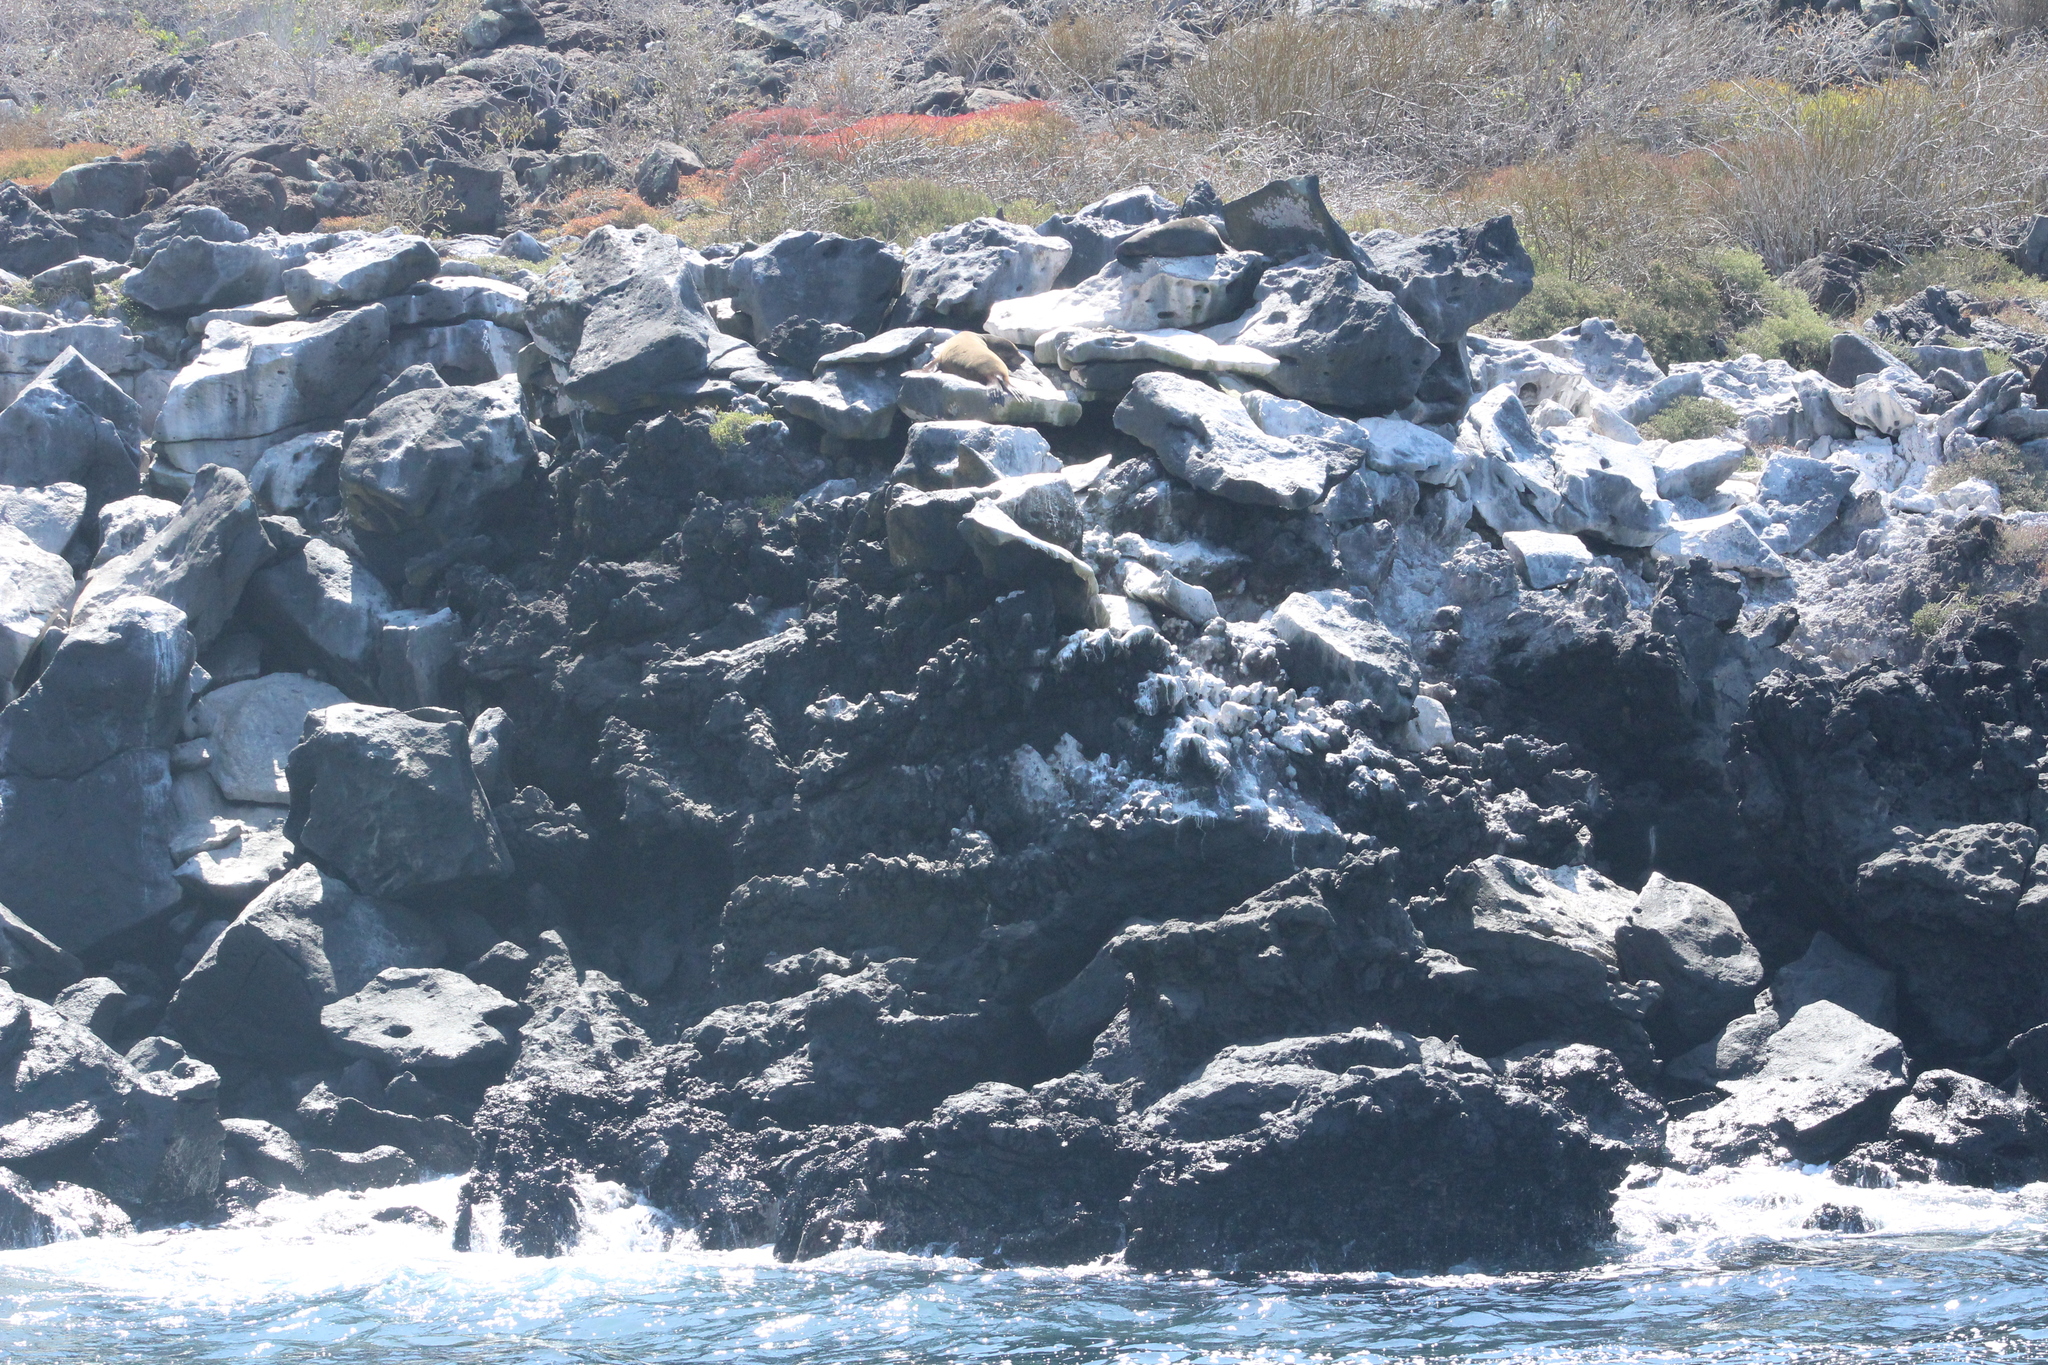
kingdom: Animalia
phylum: Chordata
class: Mammalia
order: Carnivora
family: Otariidae
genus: Zalophus
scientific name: Zalophus wollebaeki
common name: Galapagos sea lion
